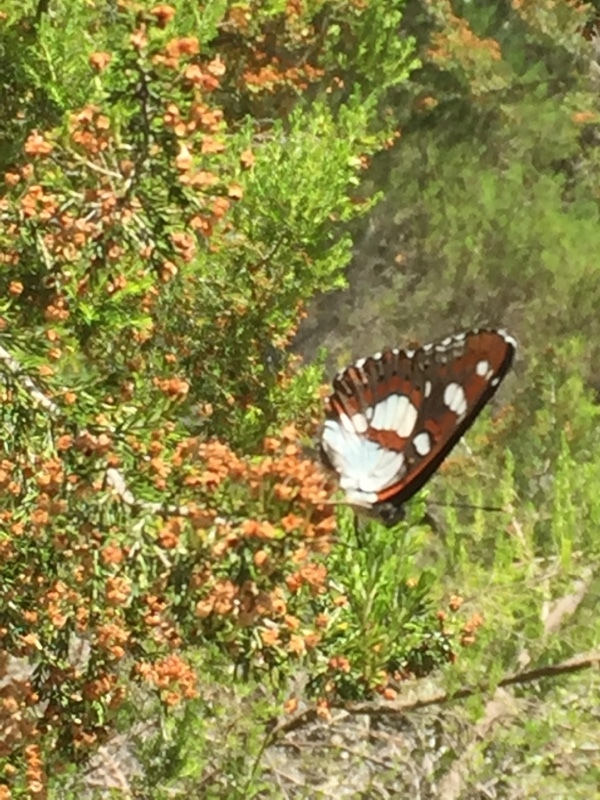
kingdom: Animalia
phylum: Arthropoda
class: Insecta
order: Lepidoptera
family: Nymphalidae
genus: Limenitis
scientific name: Limenitis reducta
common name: Southern white admiral
